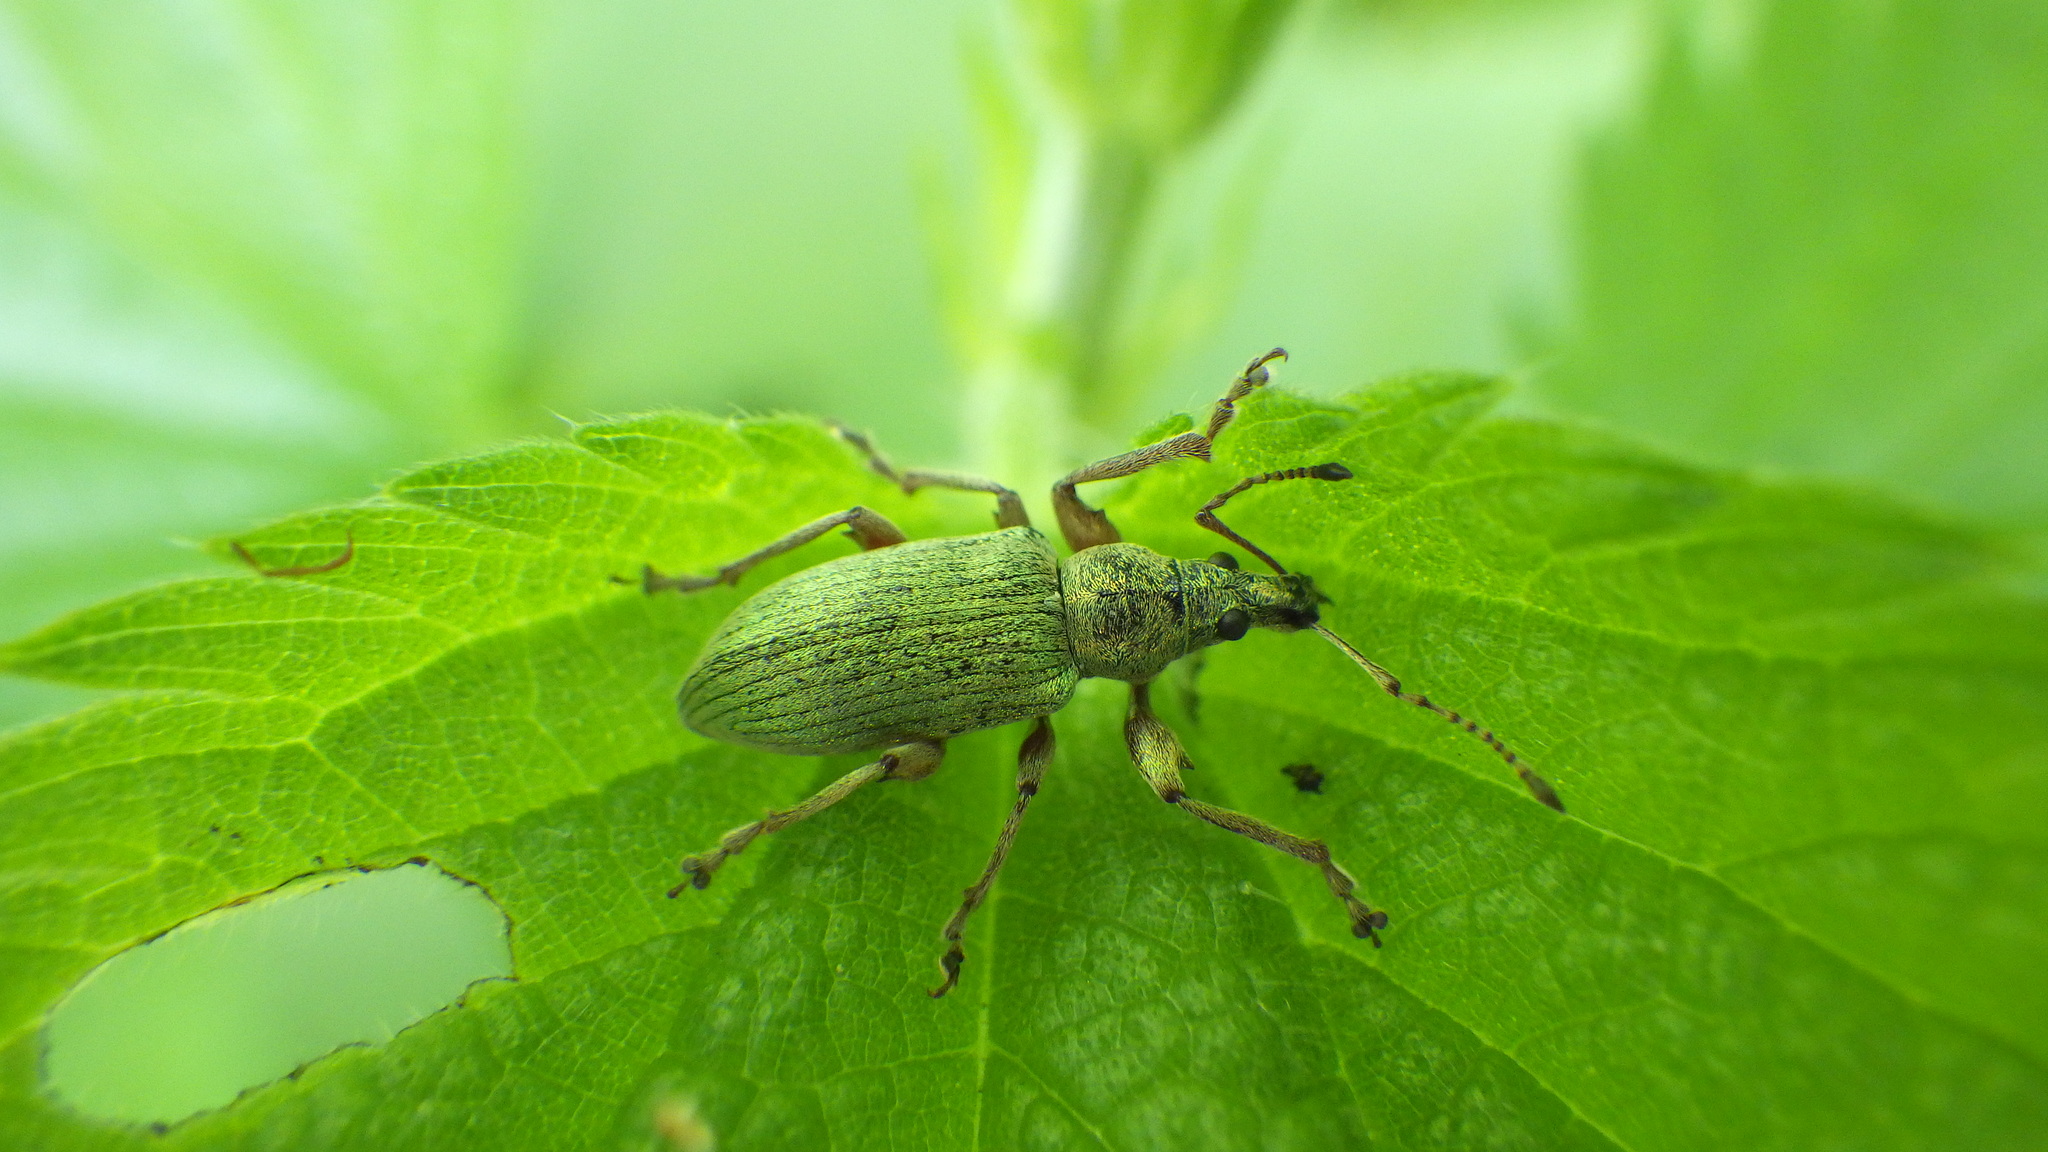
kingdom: Animalia
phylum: Arthropoda
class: Insecta
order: Coleoptera
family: Curculionidae
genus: Phyllobius
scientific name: Phyllobius pomaceus
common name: Green nettle weevil
